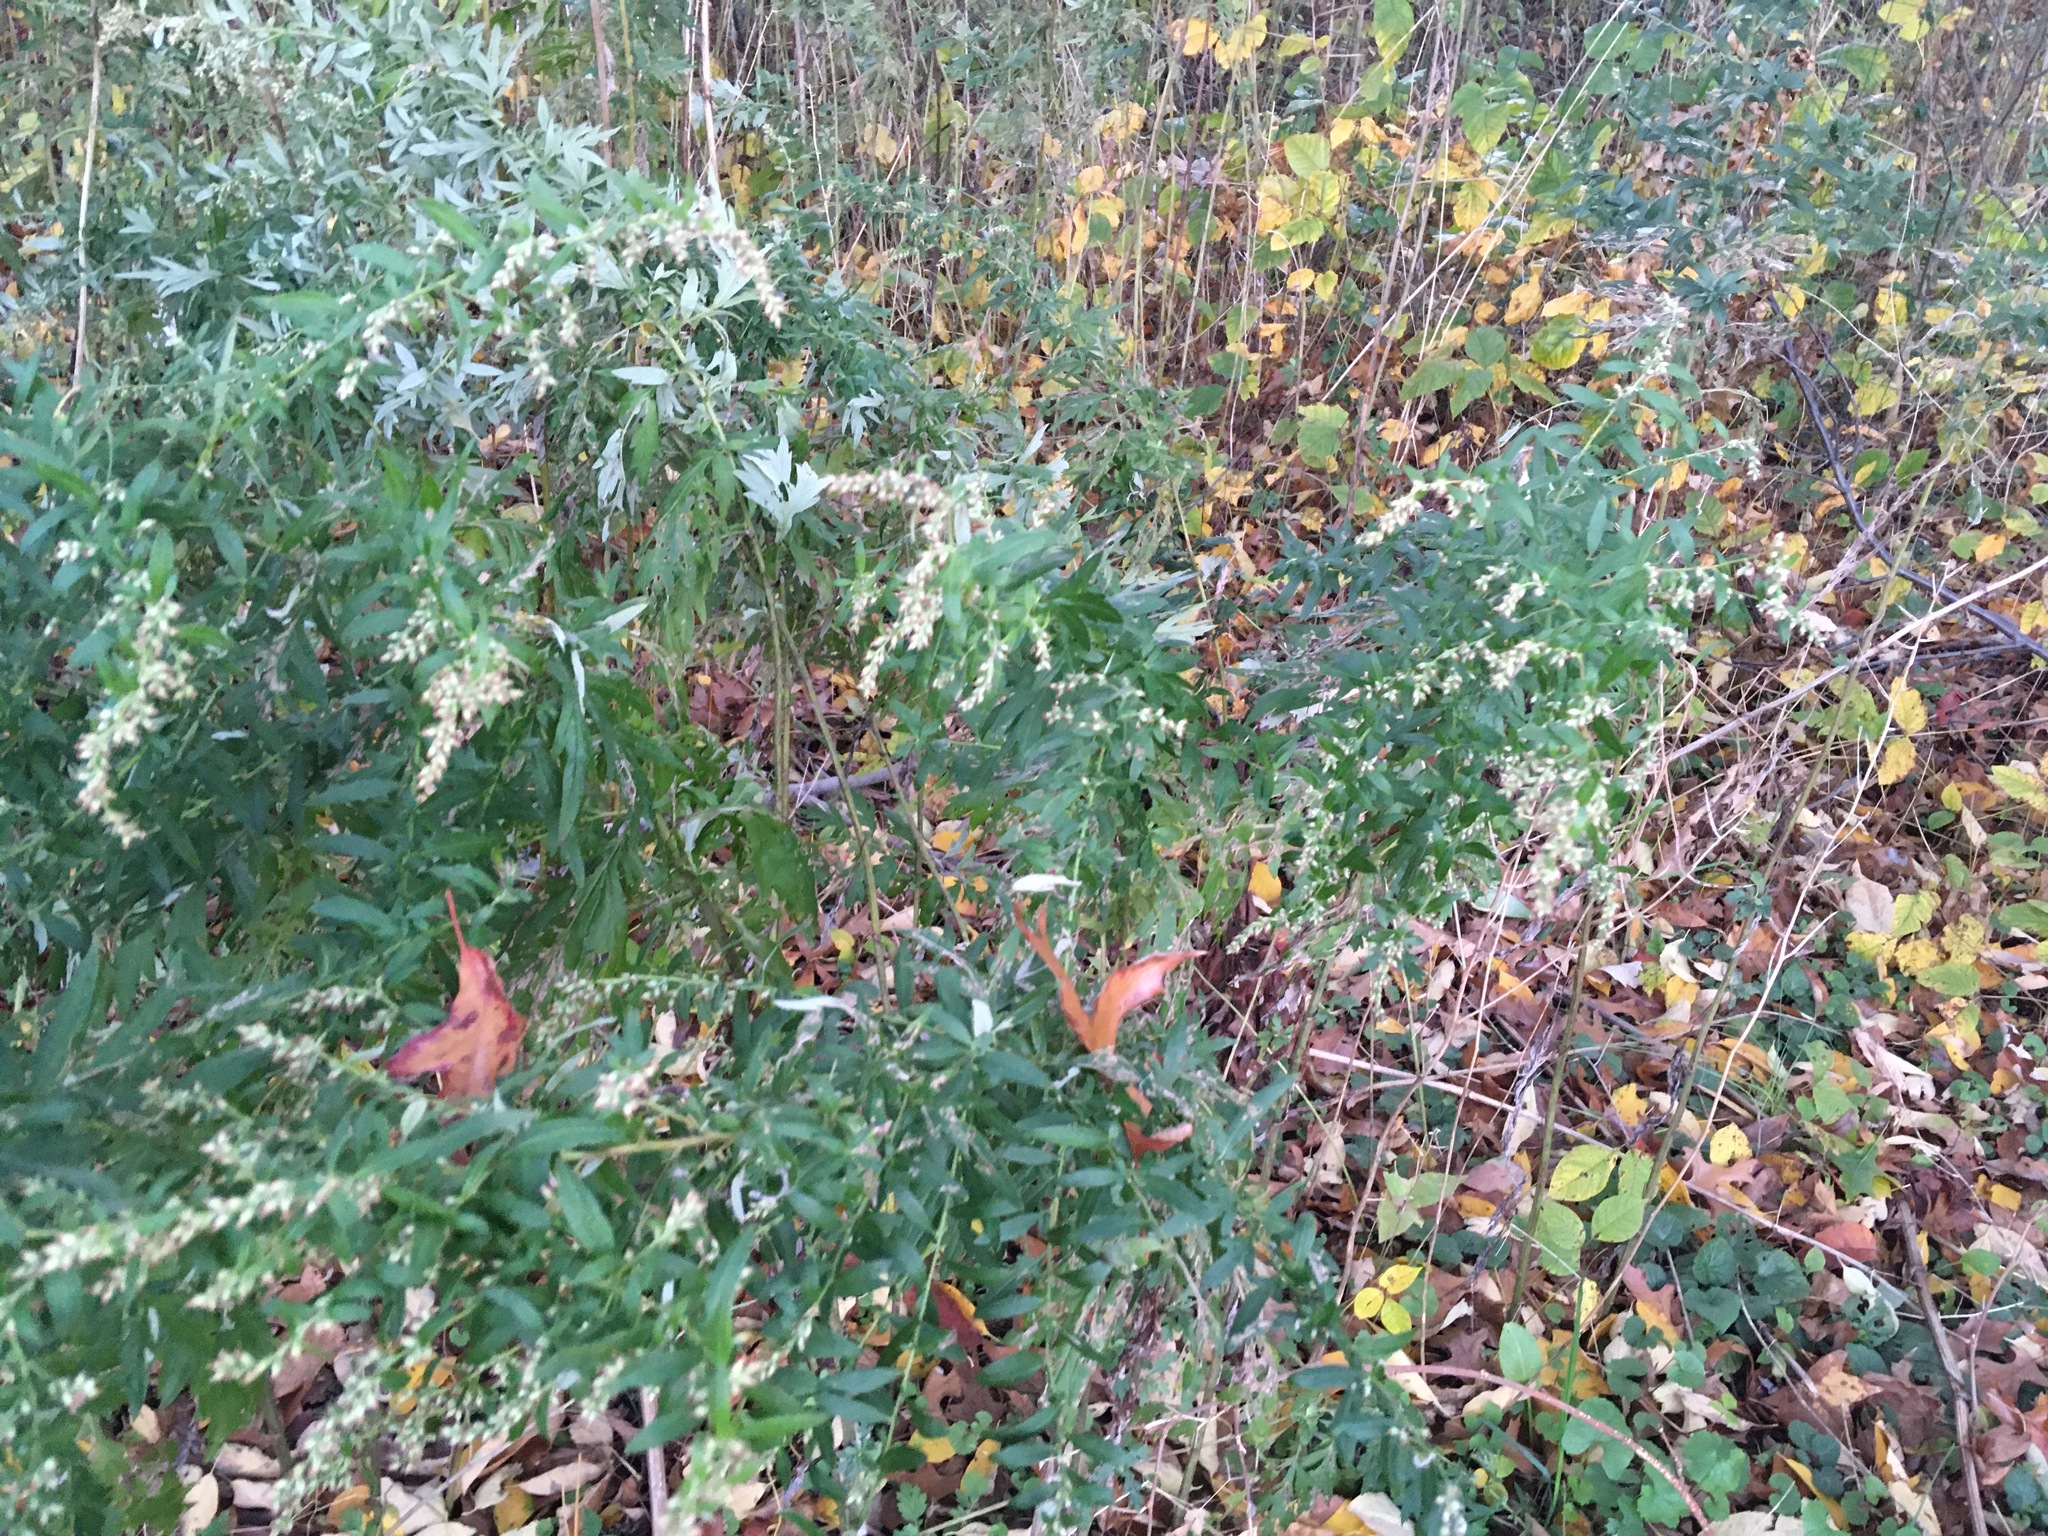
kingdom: Plantae
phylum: Tracheophyta
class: Magnoliopsida
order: Asterales
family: Asteraceae
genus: Artemisia
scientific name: Artemisia vulgaris
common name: Mugwort
